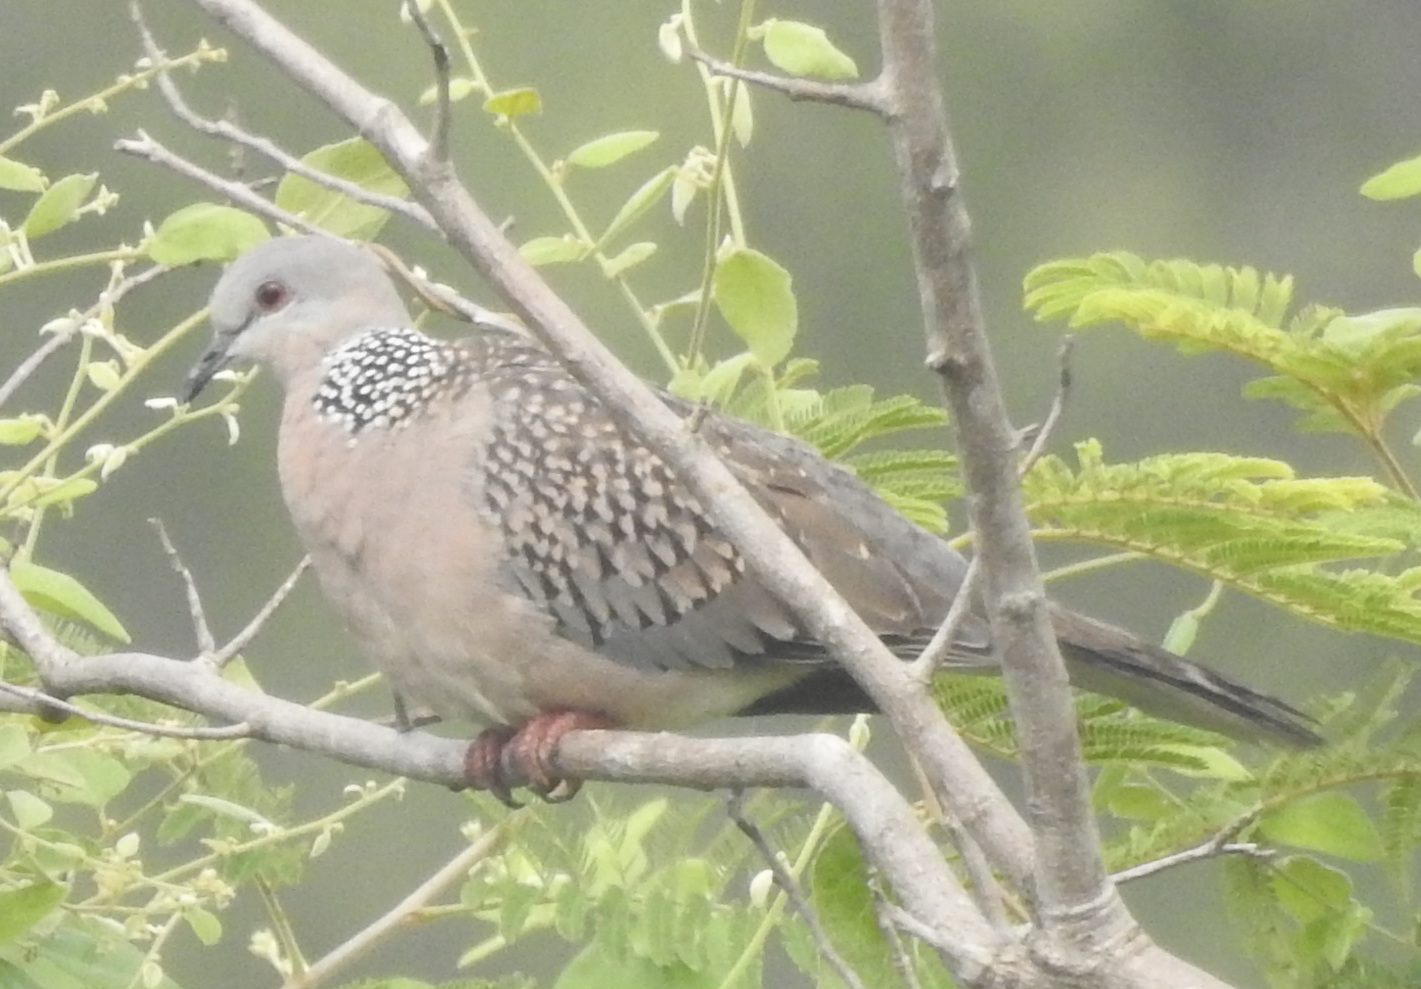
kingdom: Animalia
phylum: Chordata
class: Aves
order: Columbiformes
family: Columbidae
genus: Spilopelia
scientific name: Spilopelia chinensis
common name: Spotted dove
